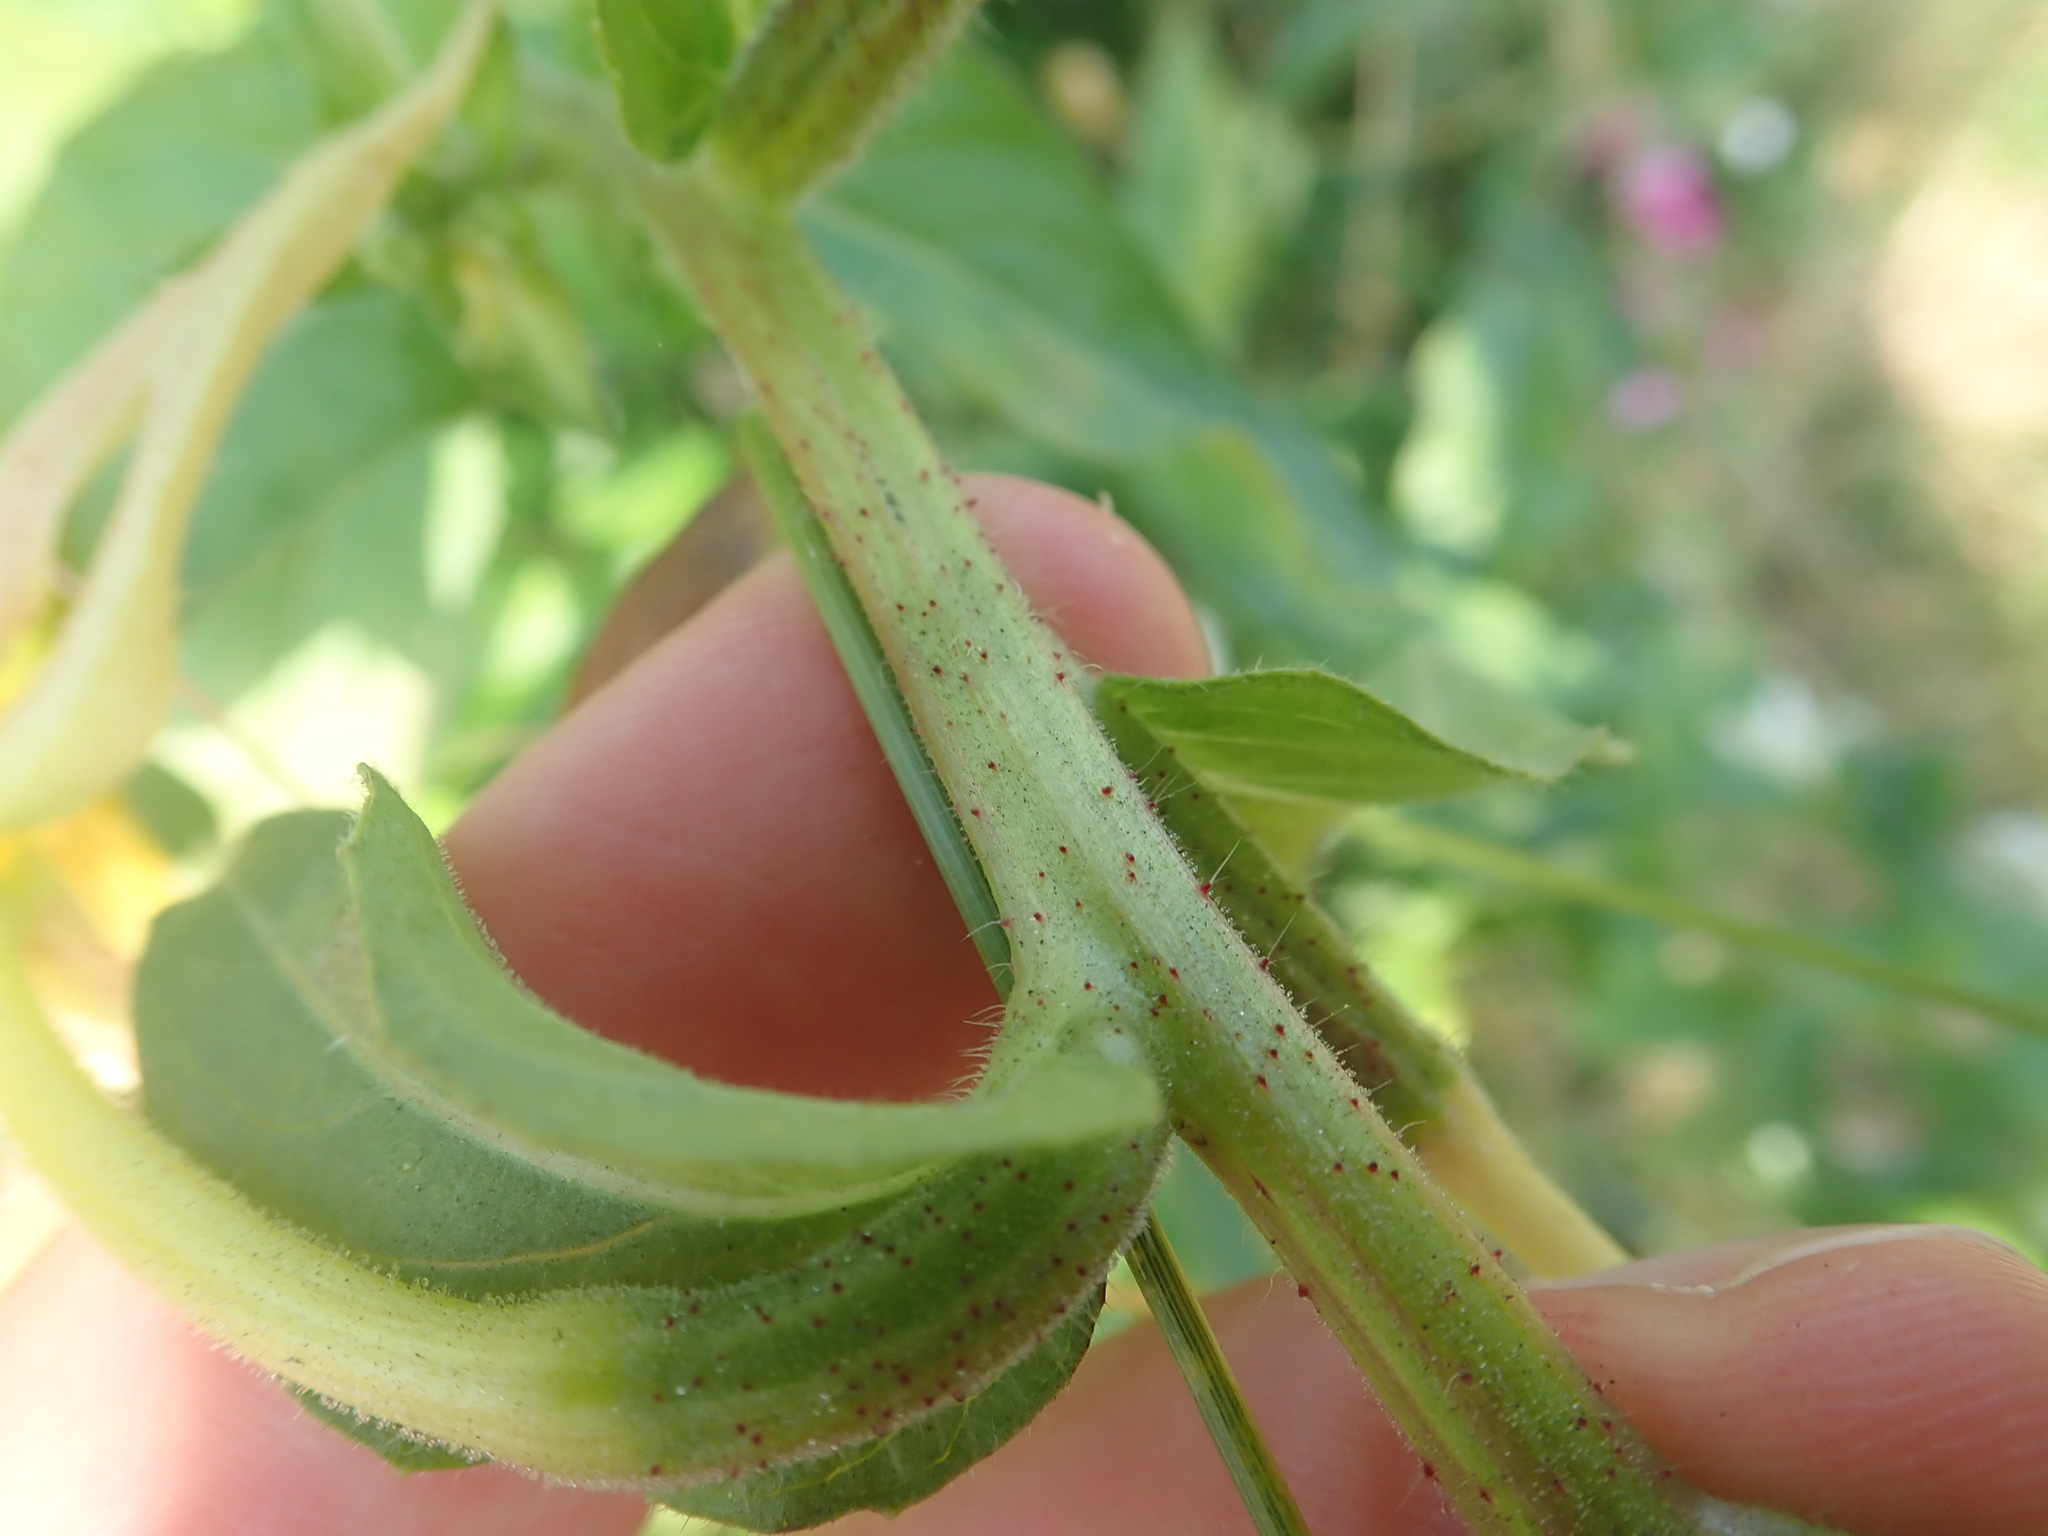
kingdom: Plantae
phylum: Tracheophyta
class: Magnoliopsida
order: Myrtales
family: Onagraceae
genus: Oenothera
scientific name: Oenothera glazioviana
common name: Large-flowered evening-primrose
